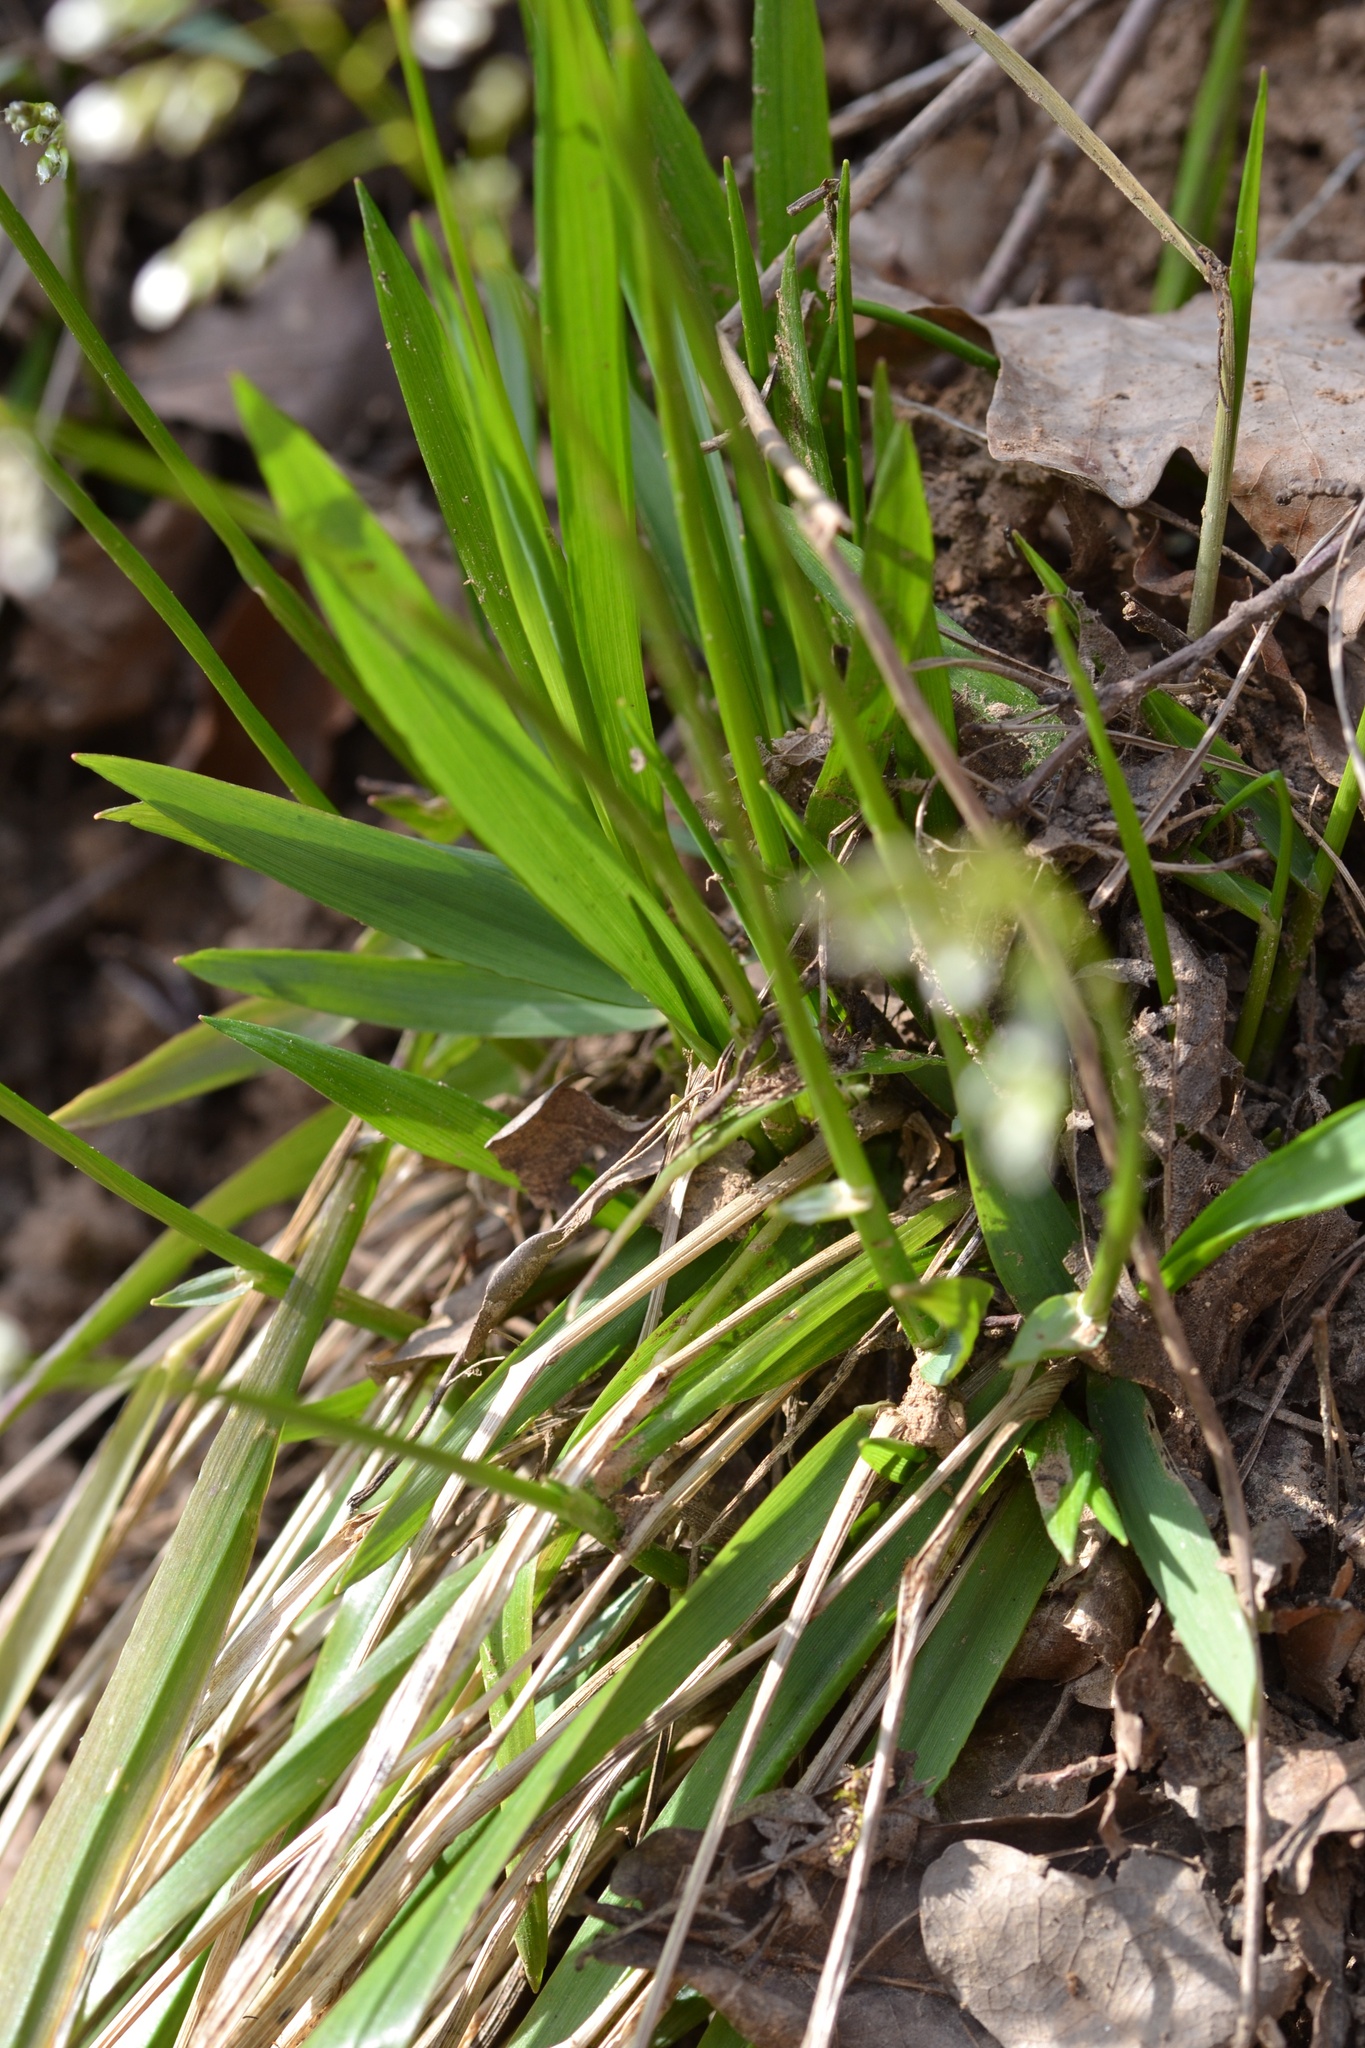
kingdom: Plantae
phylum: Tracheophyta
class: Liliopsida
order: Poales
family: Poaceae
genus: Anthoxanthum
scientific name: Anthoxanthum australe
